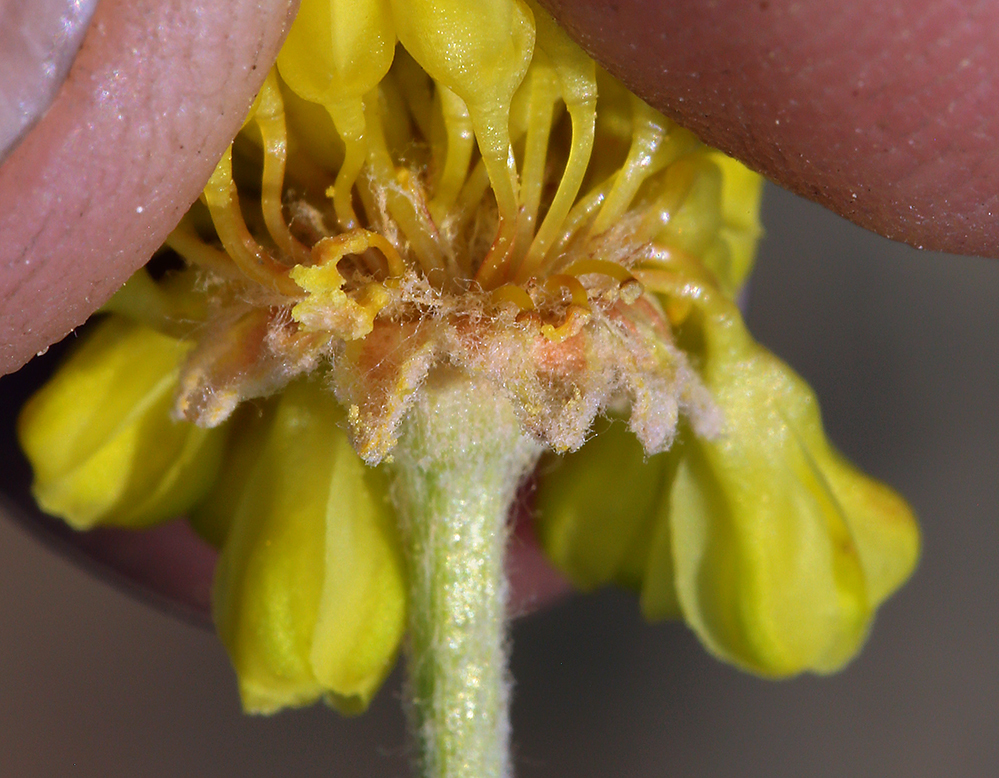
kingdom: Plantae
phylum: Tracheophyta
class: Magnoliopsida
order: Caryophyllales
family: Polygonaceae
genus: Eriogonum
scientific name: Eriogonum umbellatum
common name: Sulfur-buckwheat
